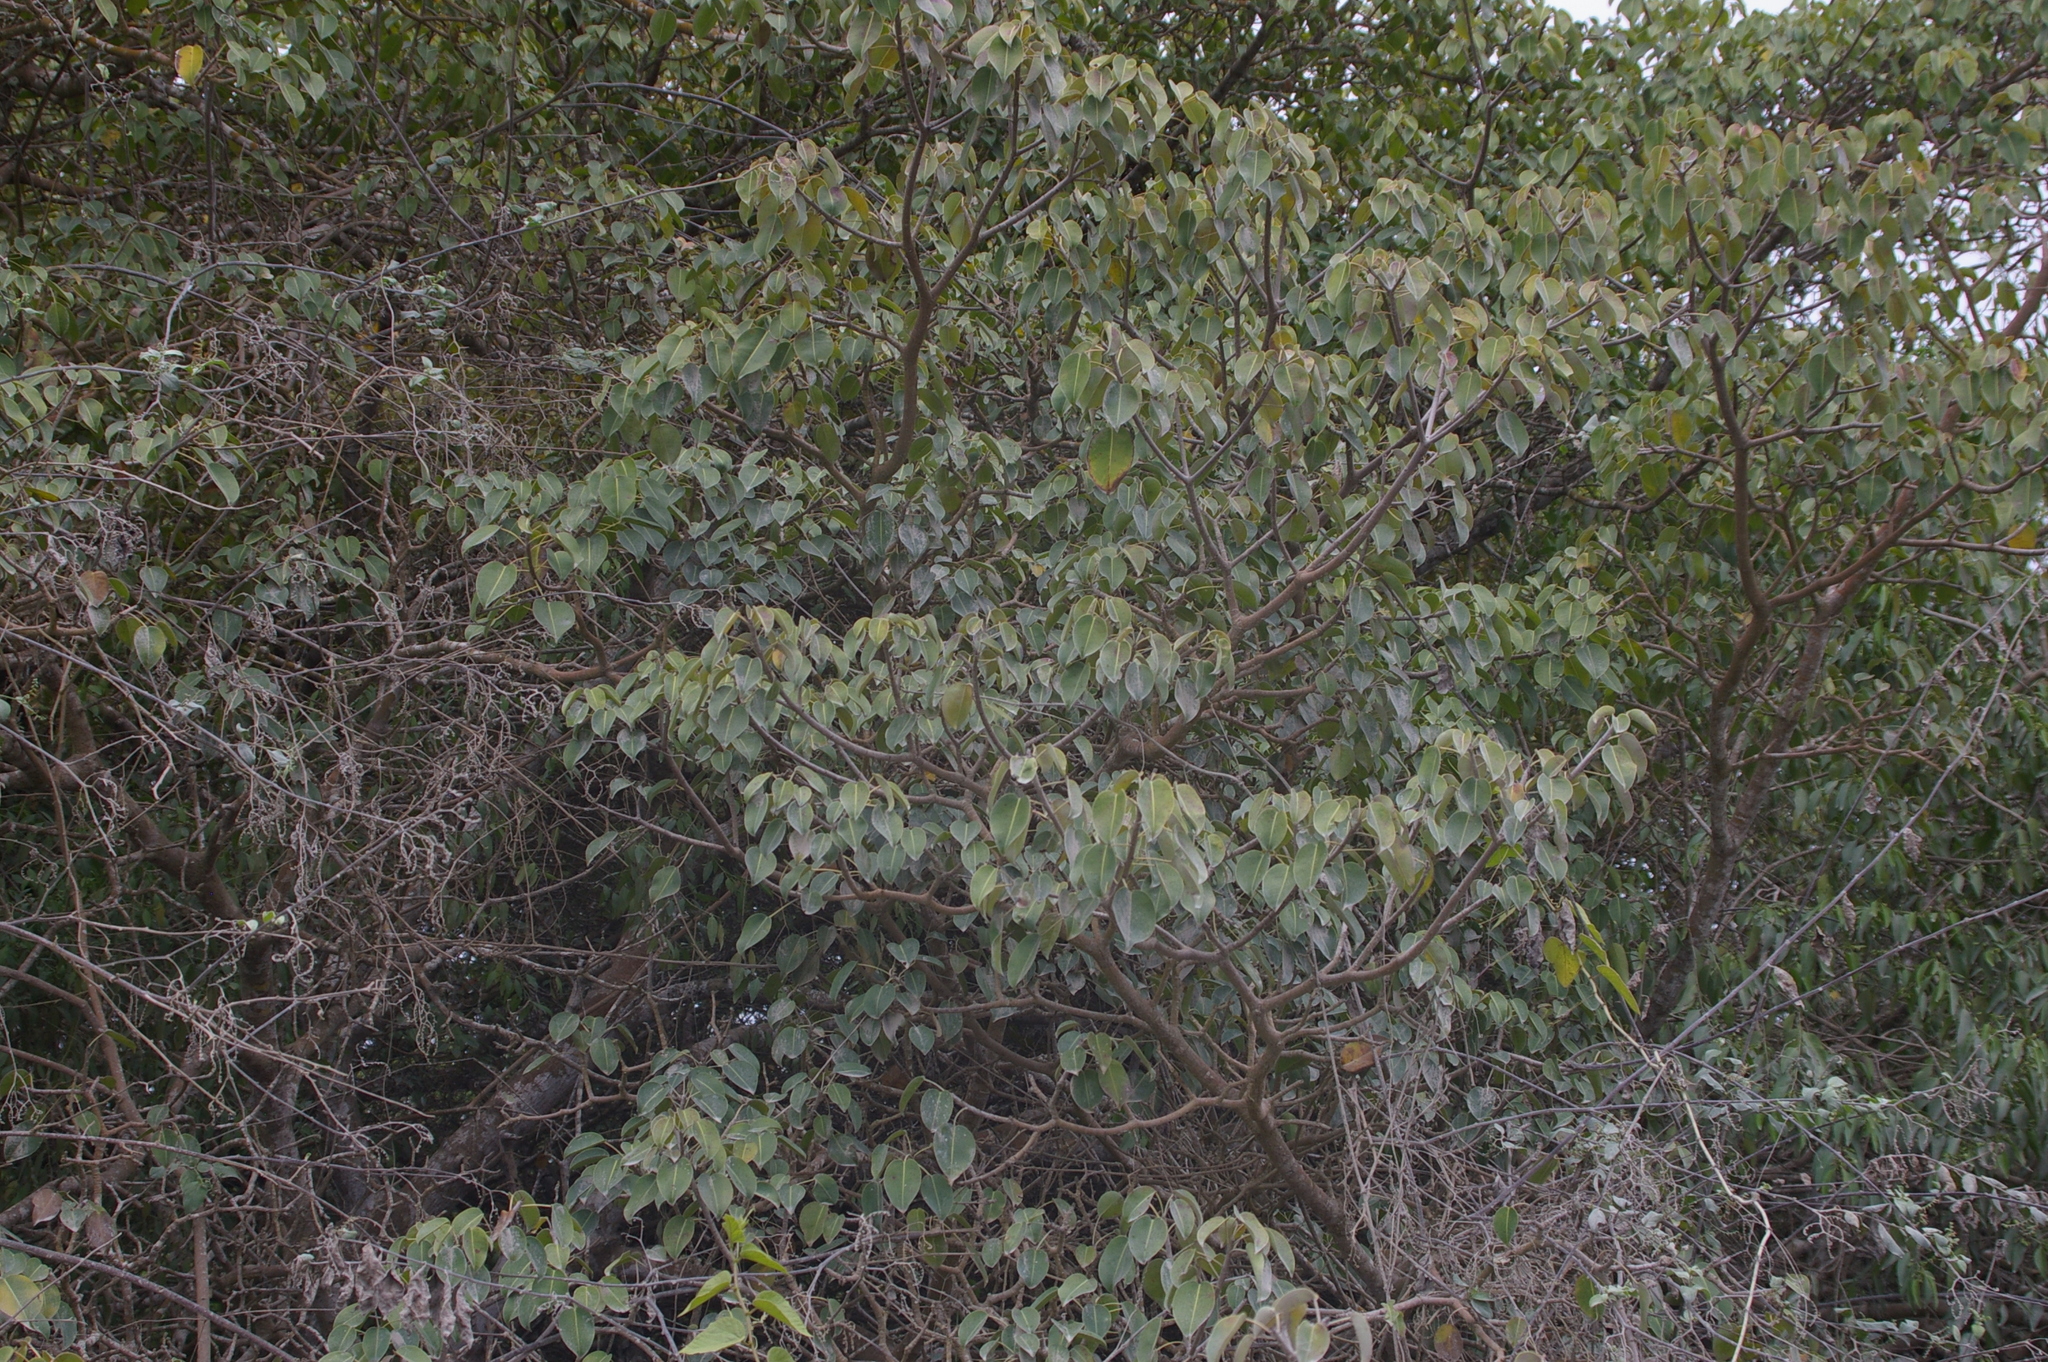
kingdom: Plantae
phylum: Tracheophyta
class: Magnoliopsida
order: Malpighiales
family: Euphorbiaceae
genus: Hippomane
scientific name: Hippomane mancinella
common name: Manchineel
